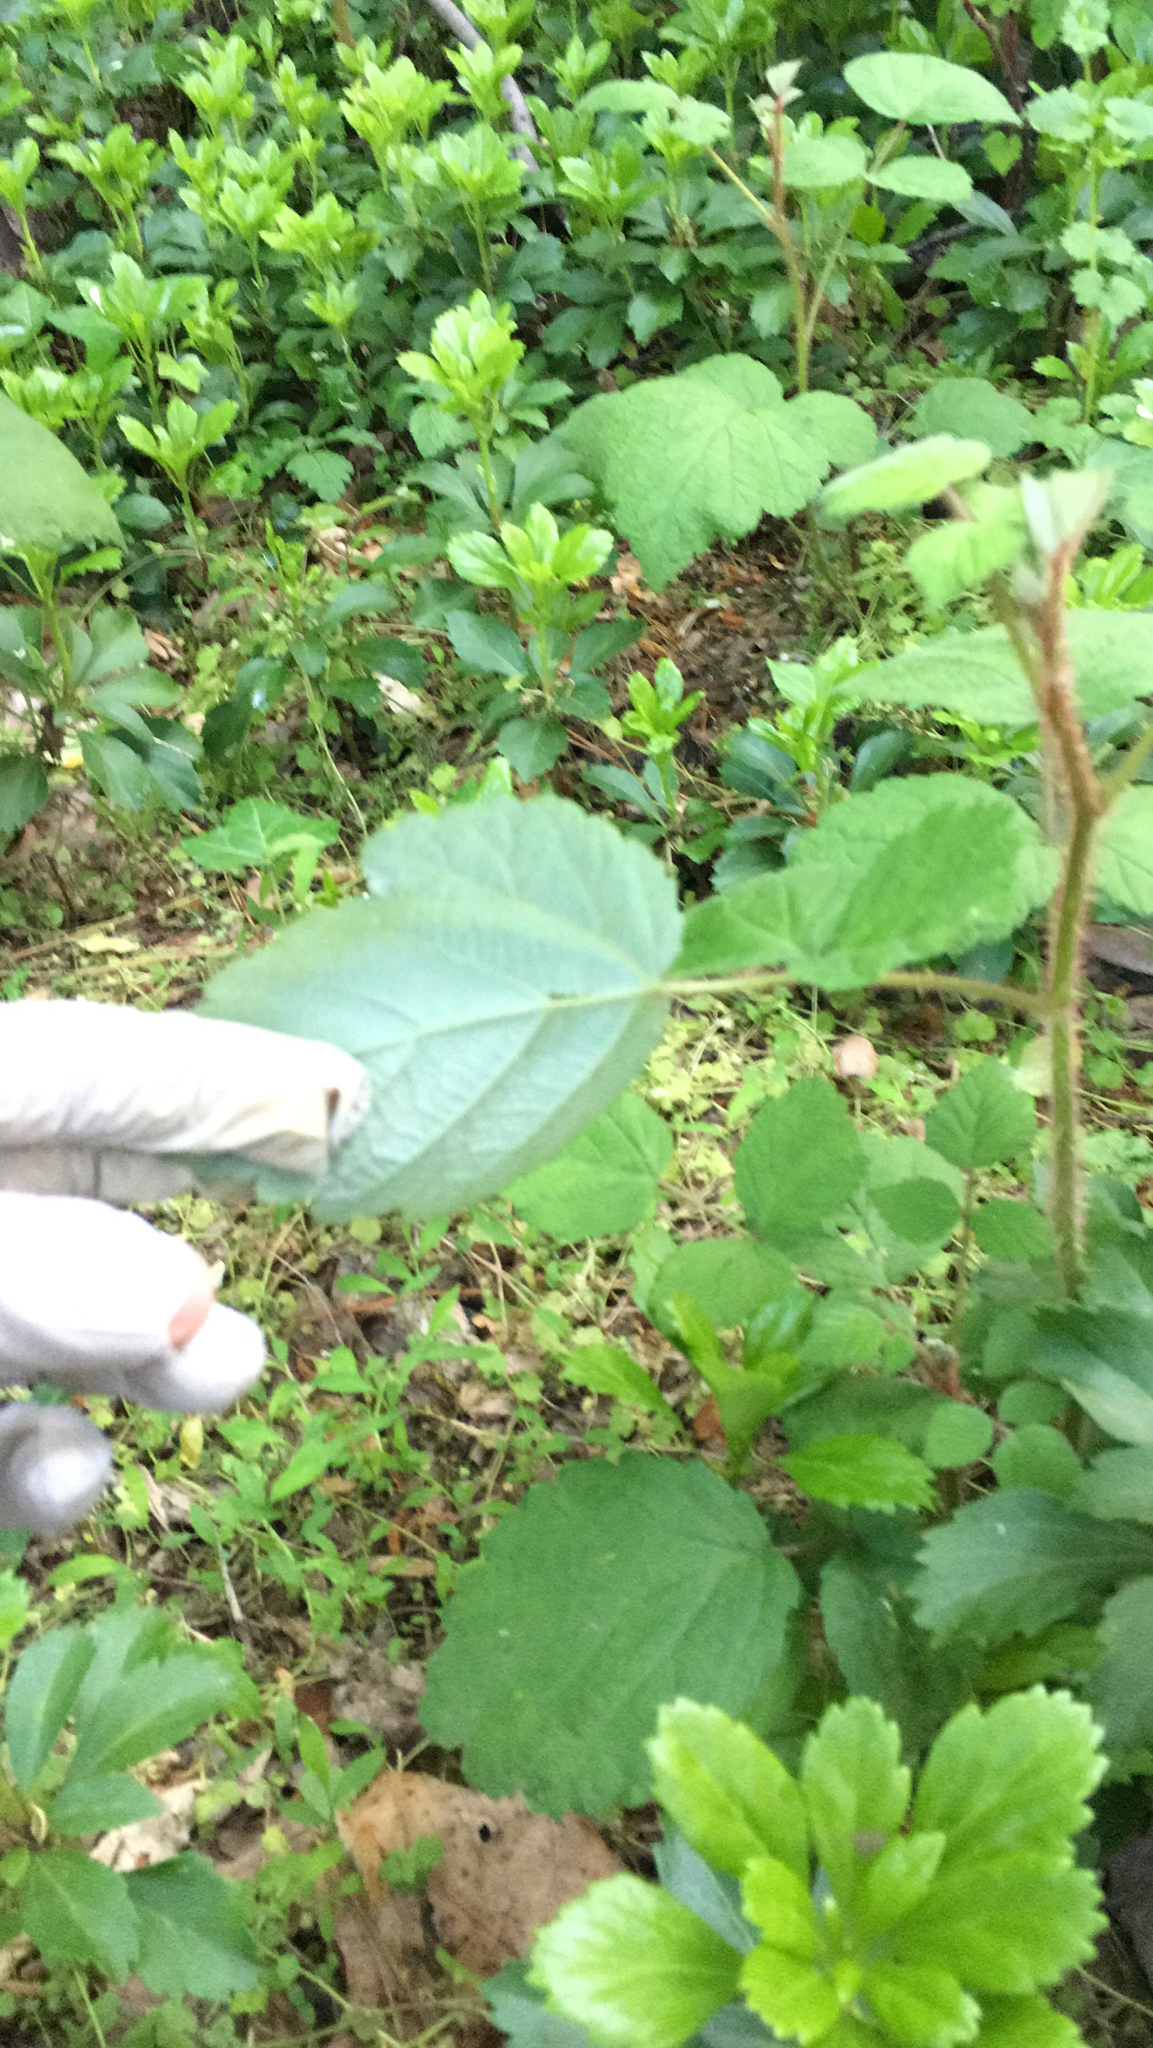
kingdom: Plantae
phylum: Tracheophyta
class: Magnoliopsida
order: Rosales
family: Rosaceae
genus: Rubus
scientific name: Rubus phoenicolasius
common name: Japanese wineberry
